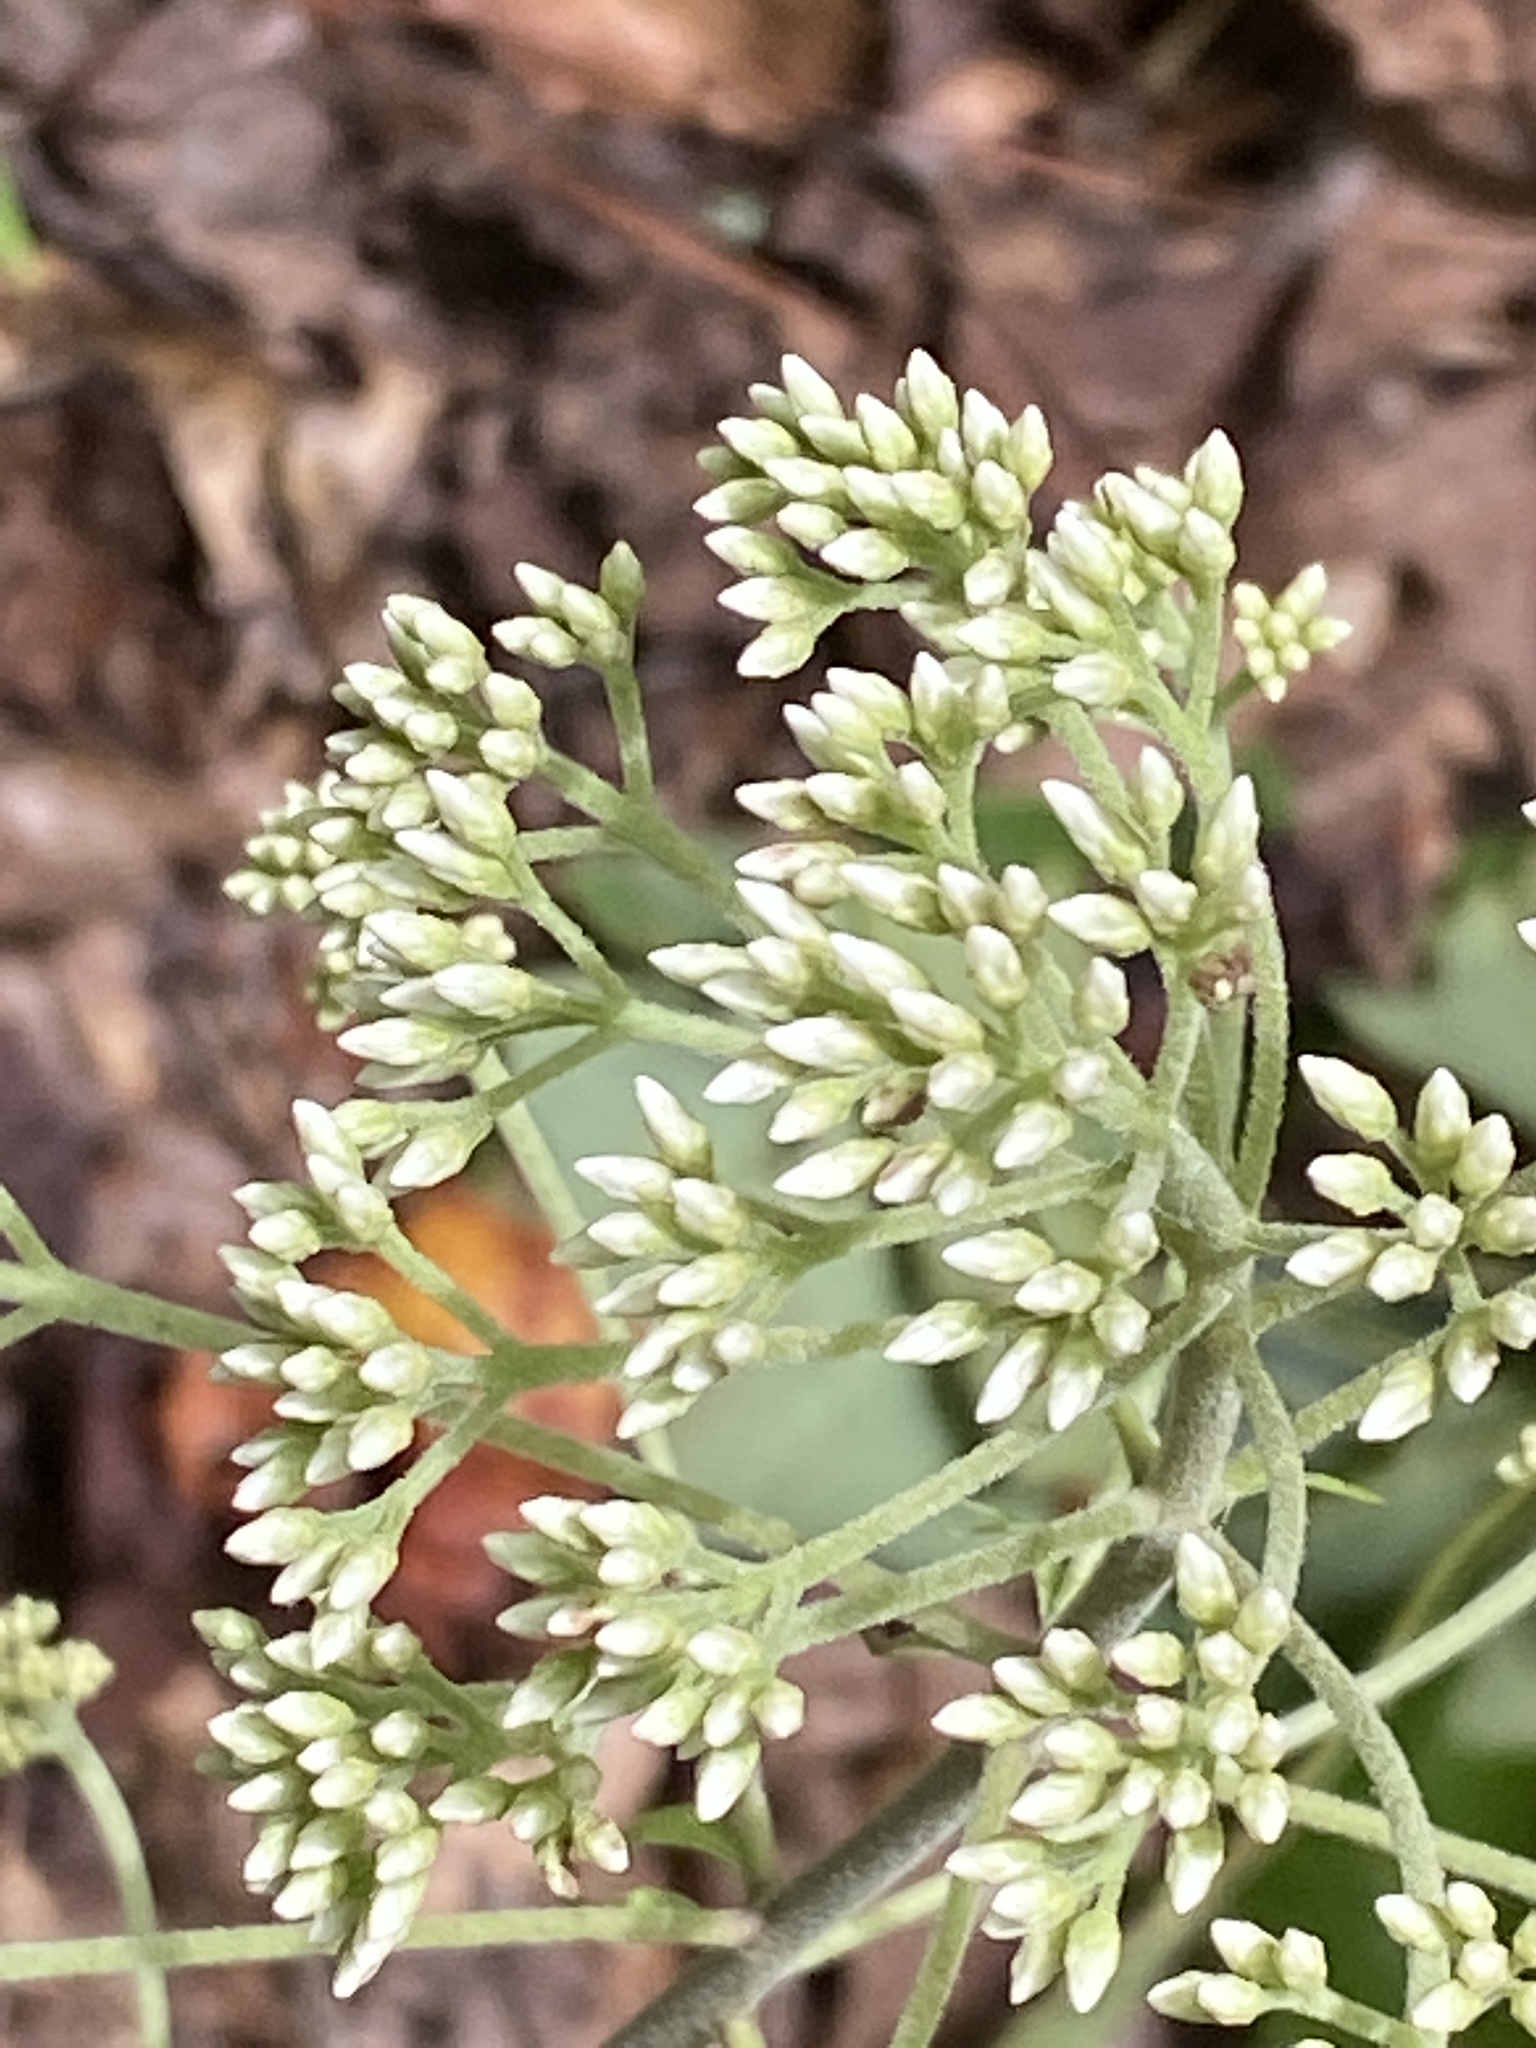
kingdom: Plantae
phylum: Tracheophyta
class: Magnoliopsida
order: Asterales
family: Asteraceae
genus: Eutrochium
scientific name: Eutrochium purpureum
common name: Gravelroot
